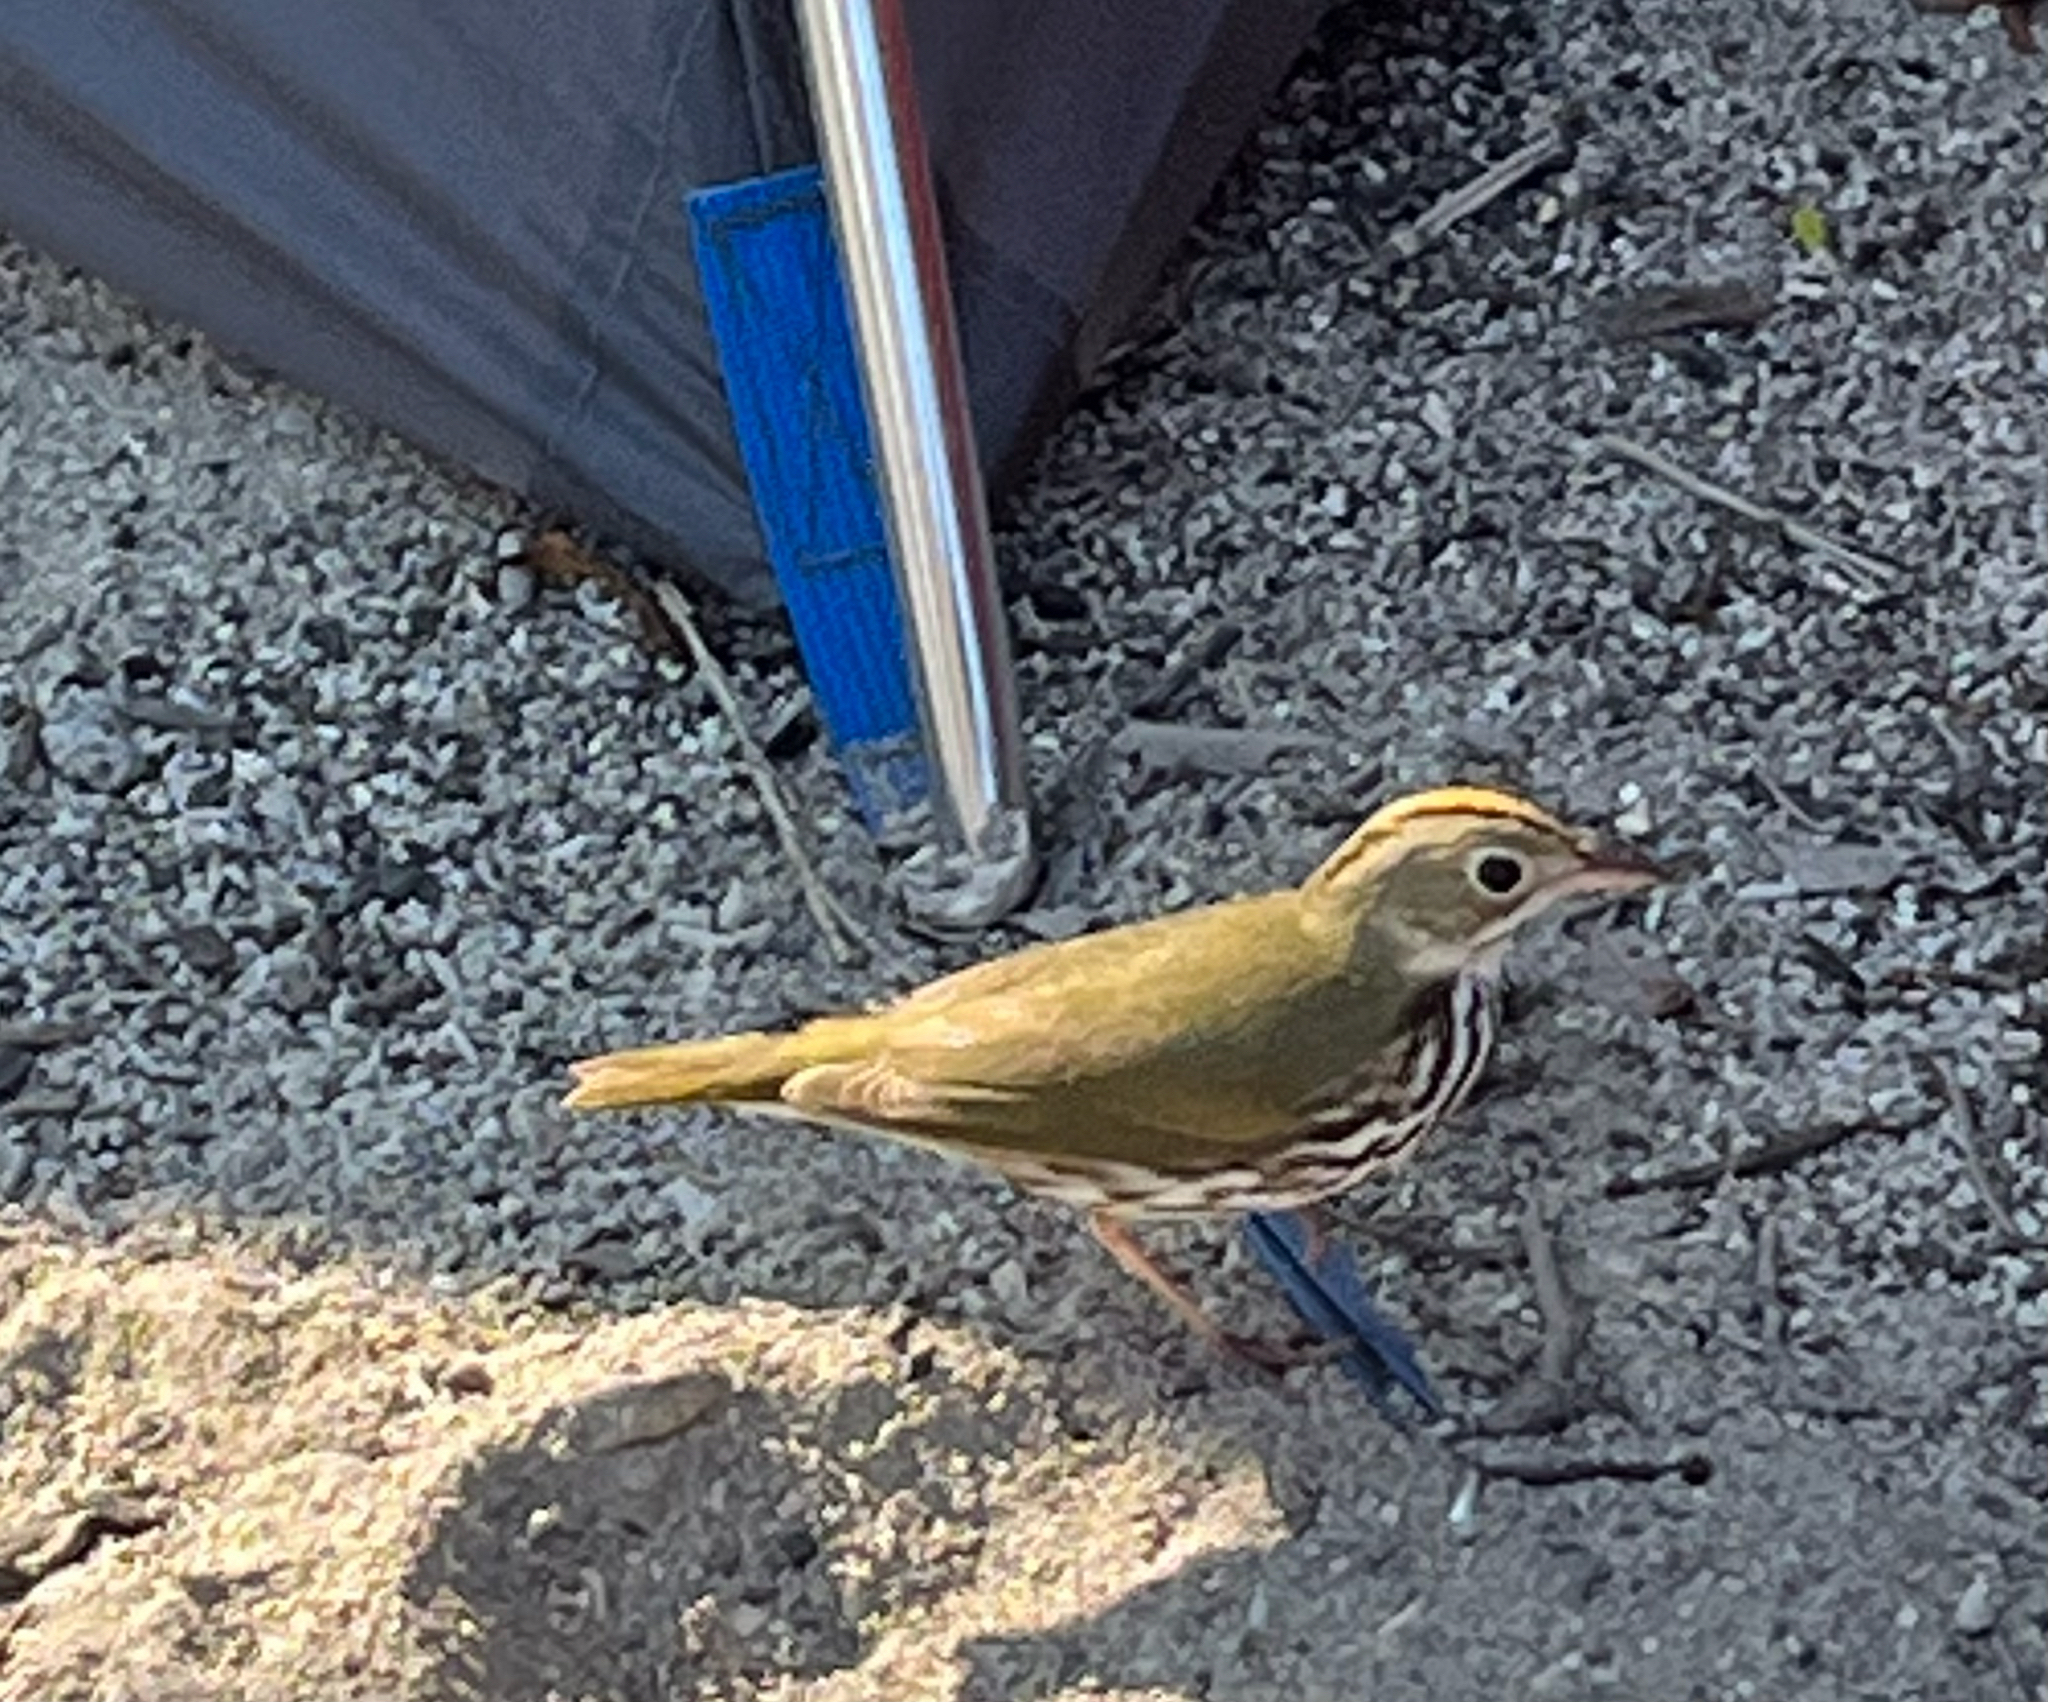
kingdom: Animalia
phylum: Chordata
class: Aves
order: Passeriformes
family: Parulidae
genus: Seiurus
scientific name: Seiurus aurocapilla
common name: Ovenbird
